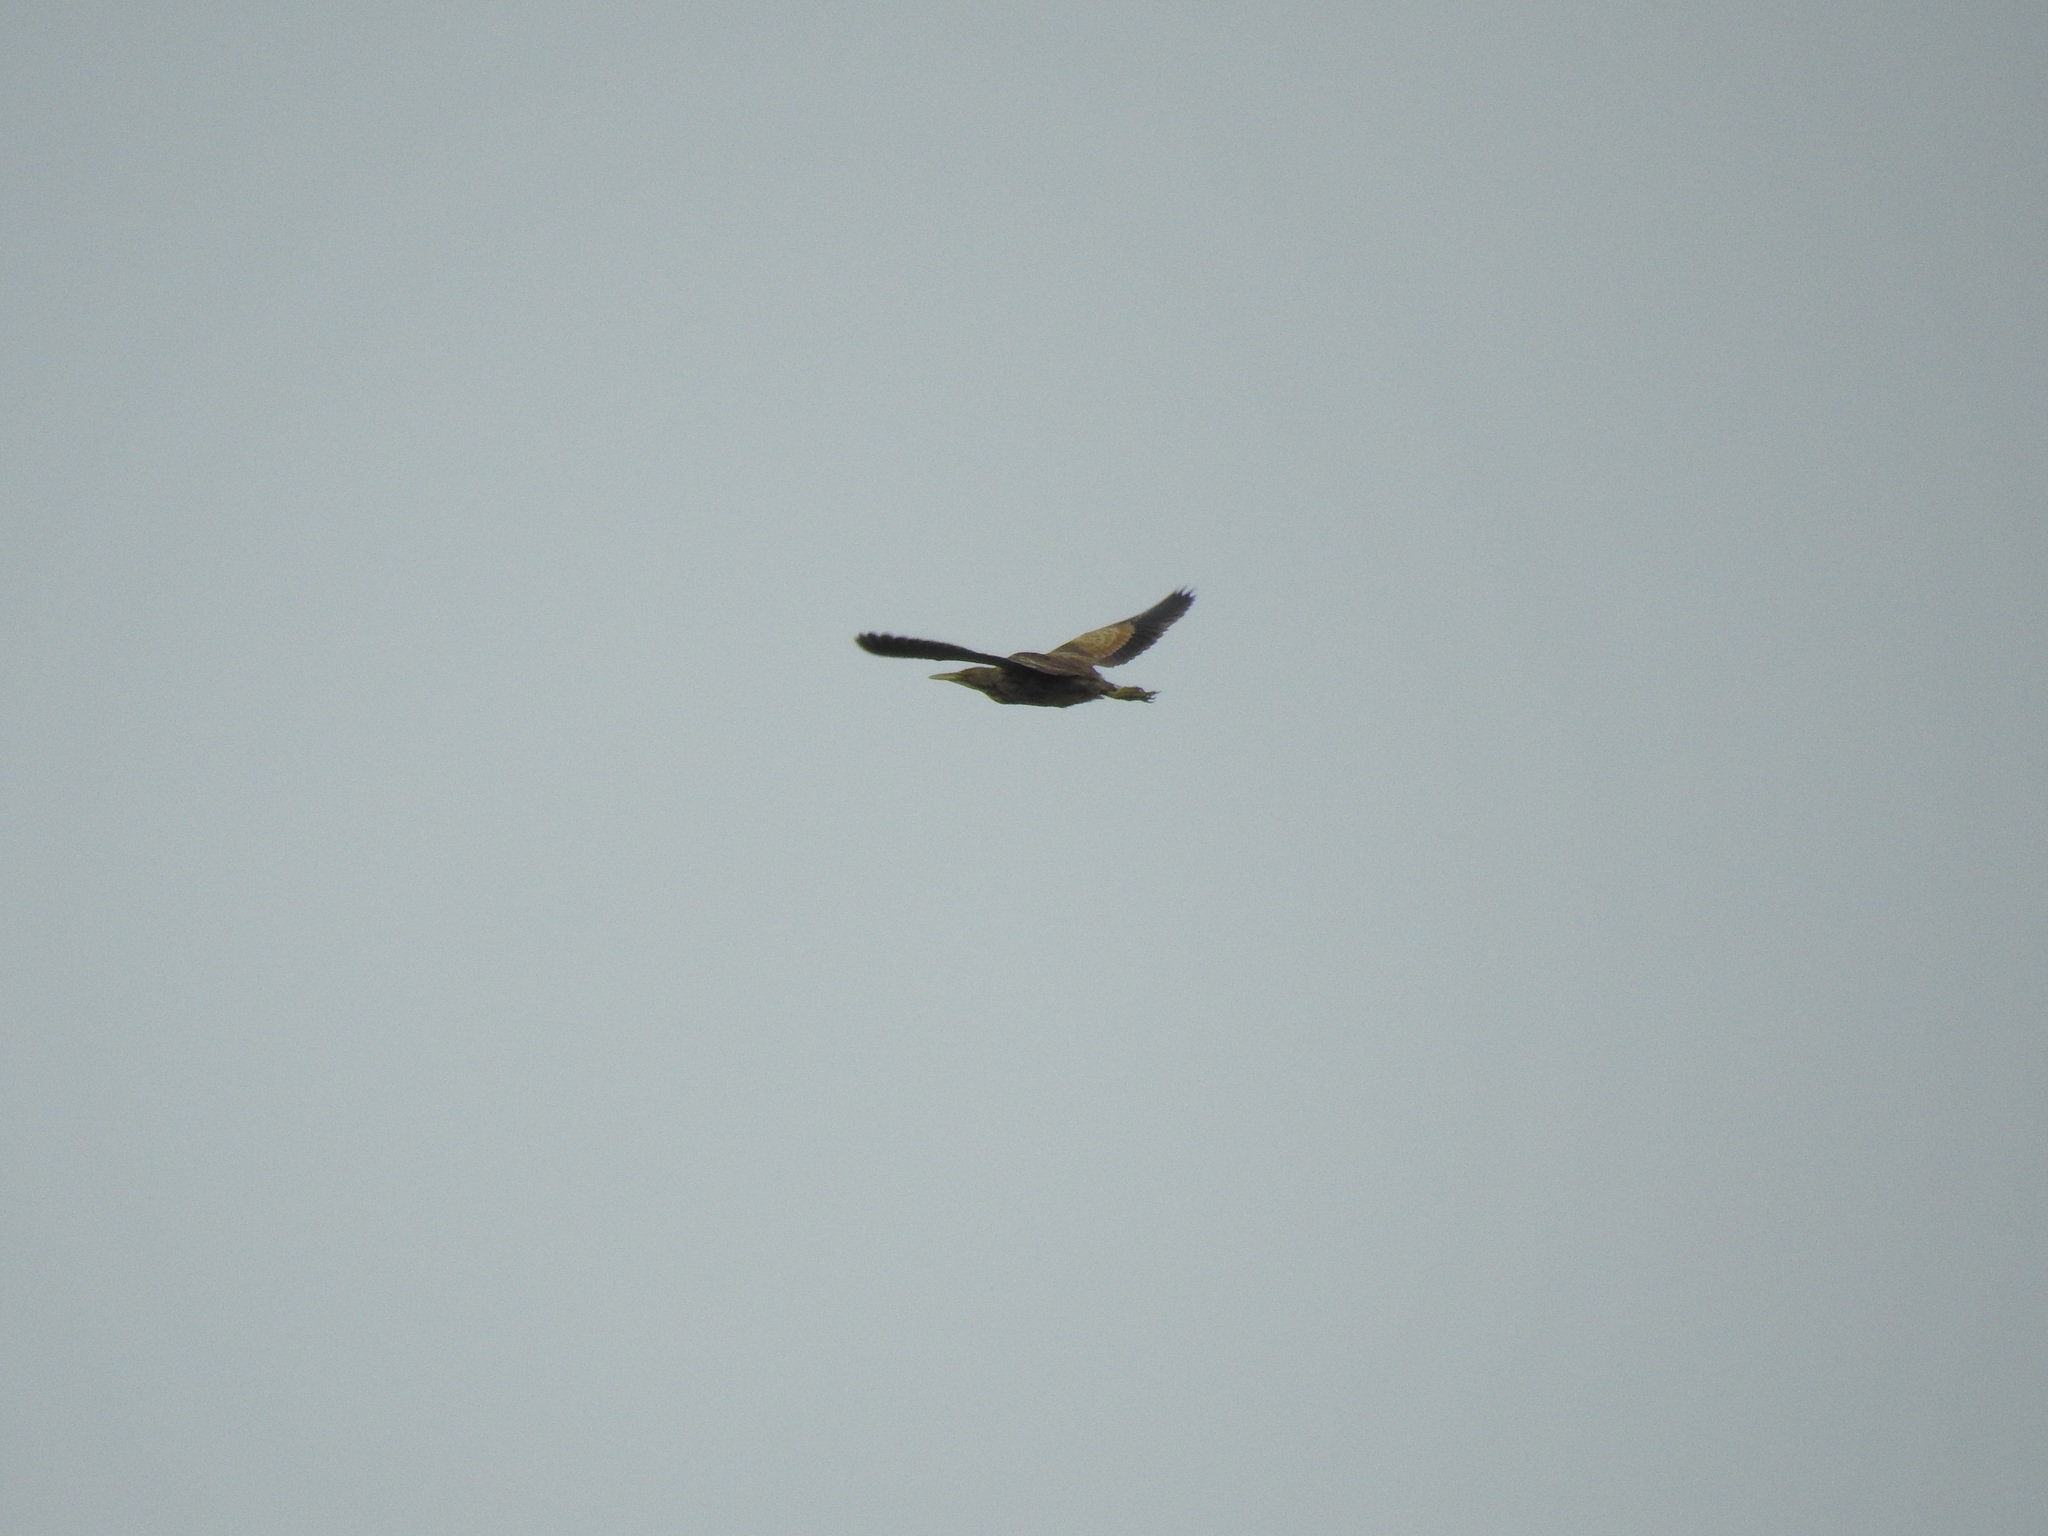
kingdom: Animalia
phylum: Chordata
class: Aves
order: Pelecaniformes
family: Ardeidae
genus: Botaurus
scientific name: Botaurus lentiginosus
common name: American bittern
